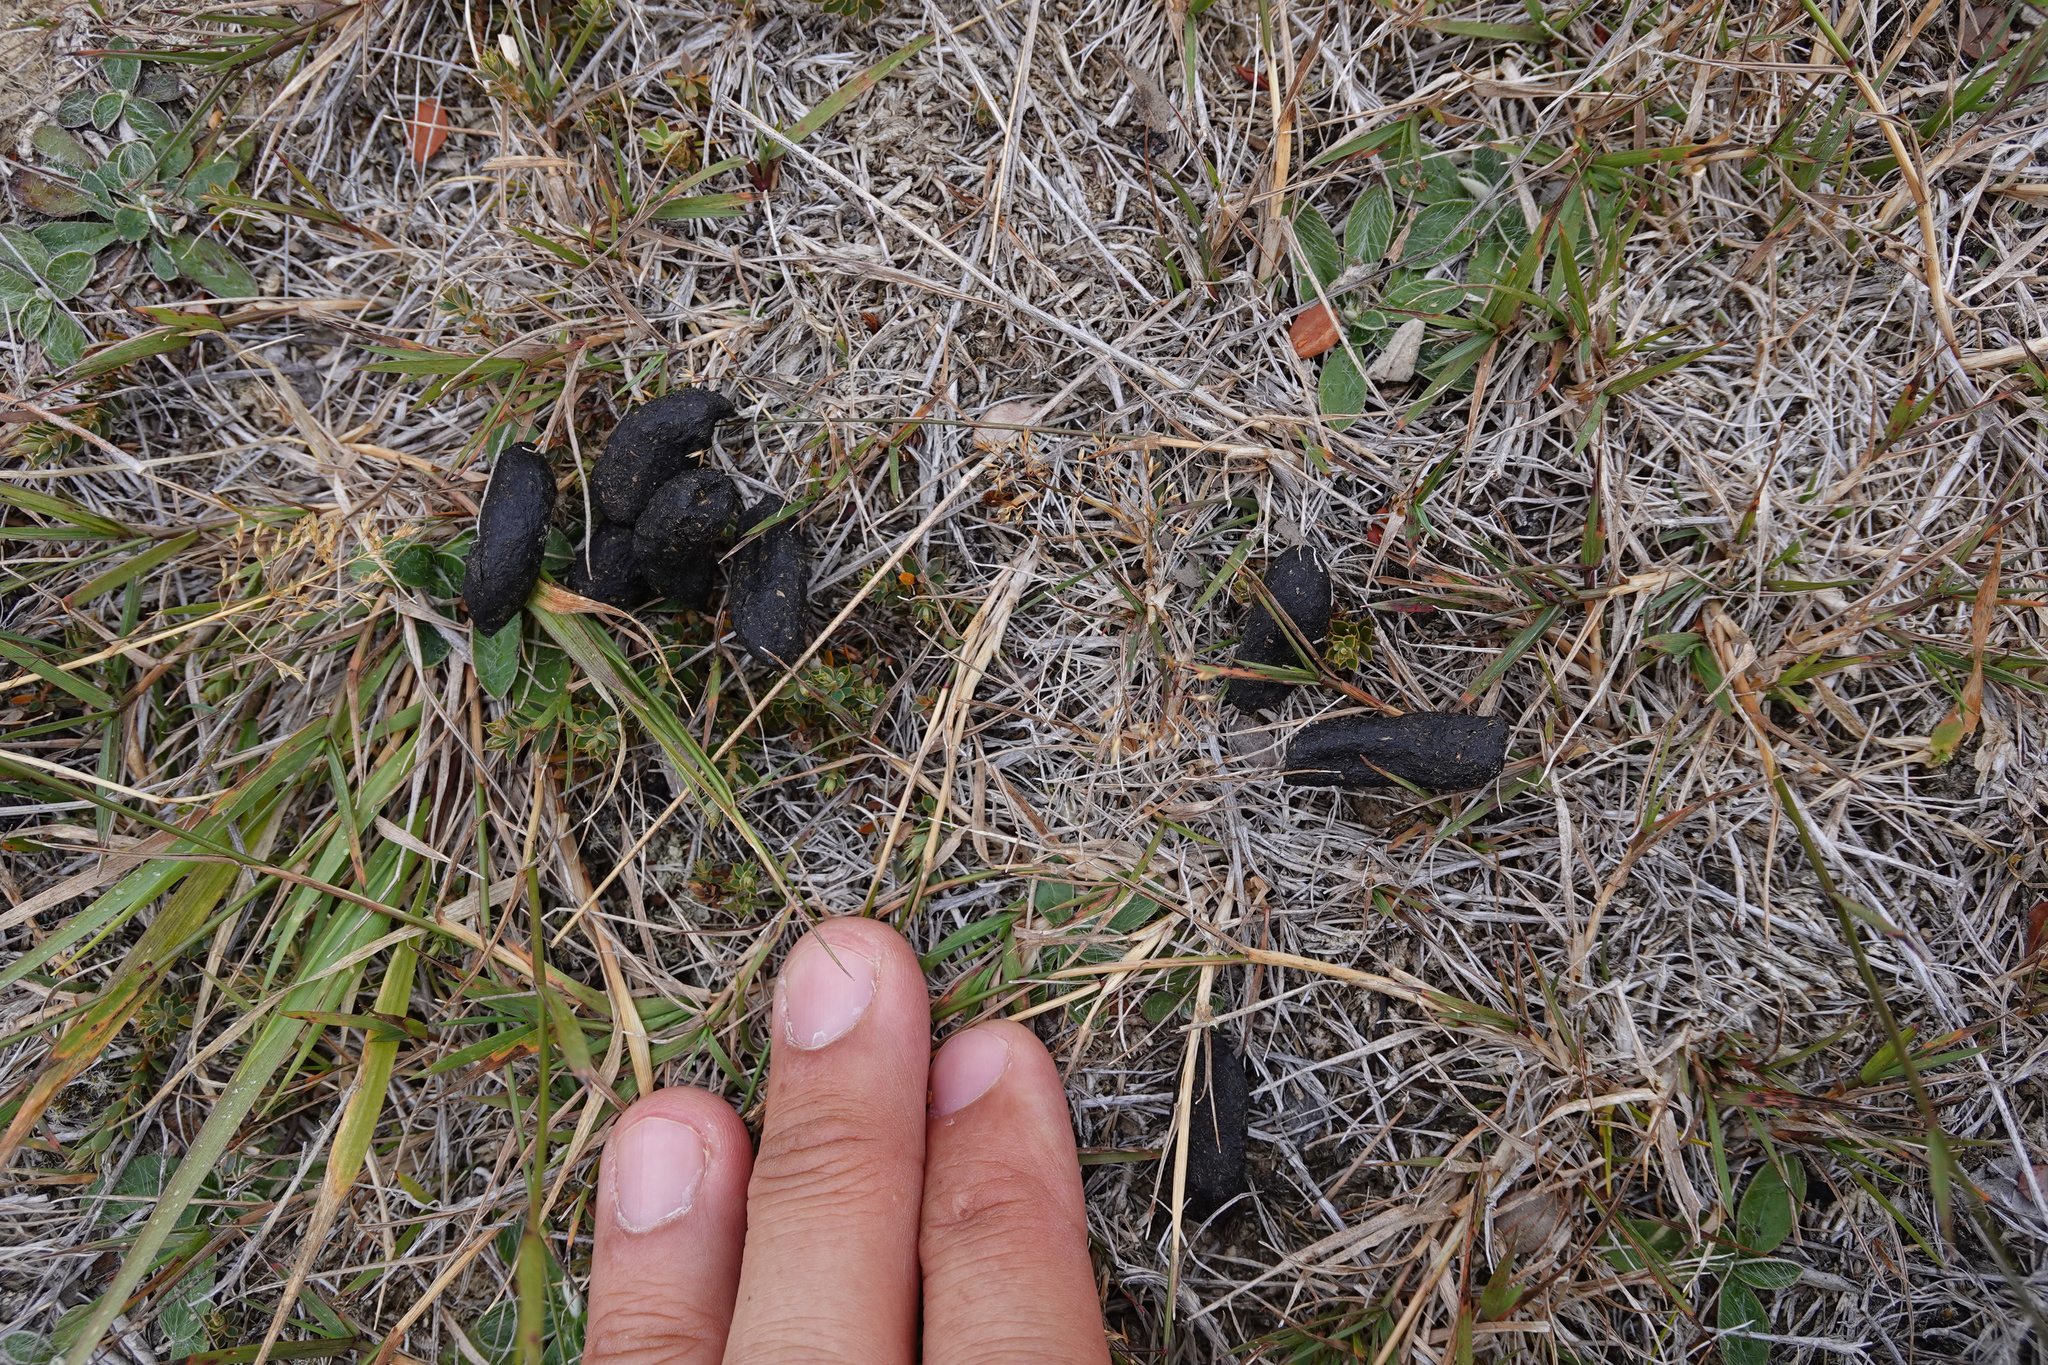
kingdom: Animalia
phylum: Chordata
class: Mammalia
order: Diprotodontia
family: Phalangeridae
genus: Trichosurus
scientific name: Trichosurus vulpecula
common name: Common brushtail
